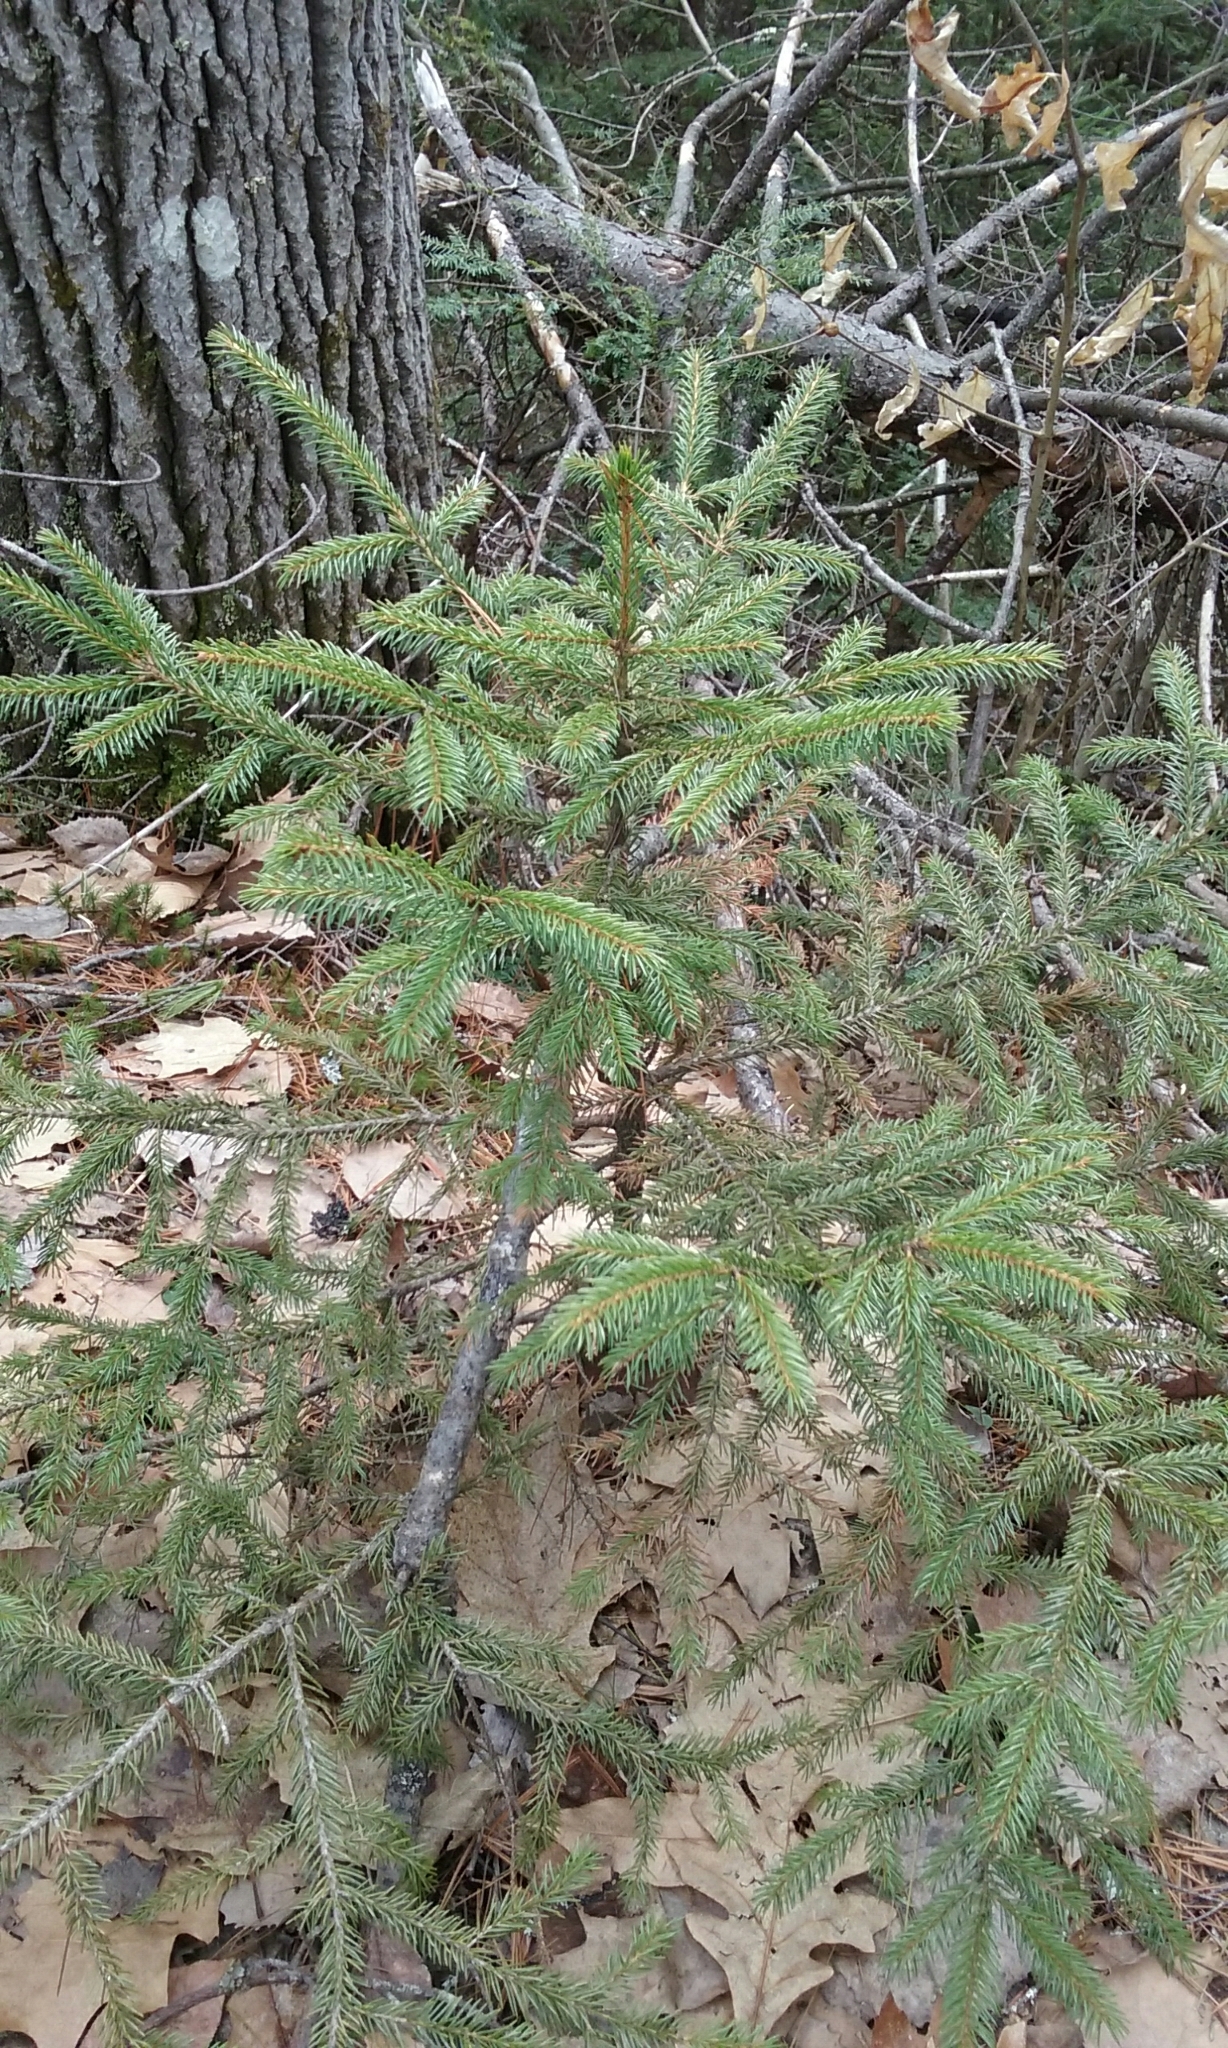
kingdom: Plantae
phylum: Tracheophyta
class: Pinopsida
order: Pinales
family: Pinaceae
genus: Picea
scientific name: Picea rubens
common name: Red spruce
